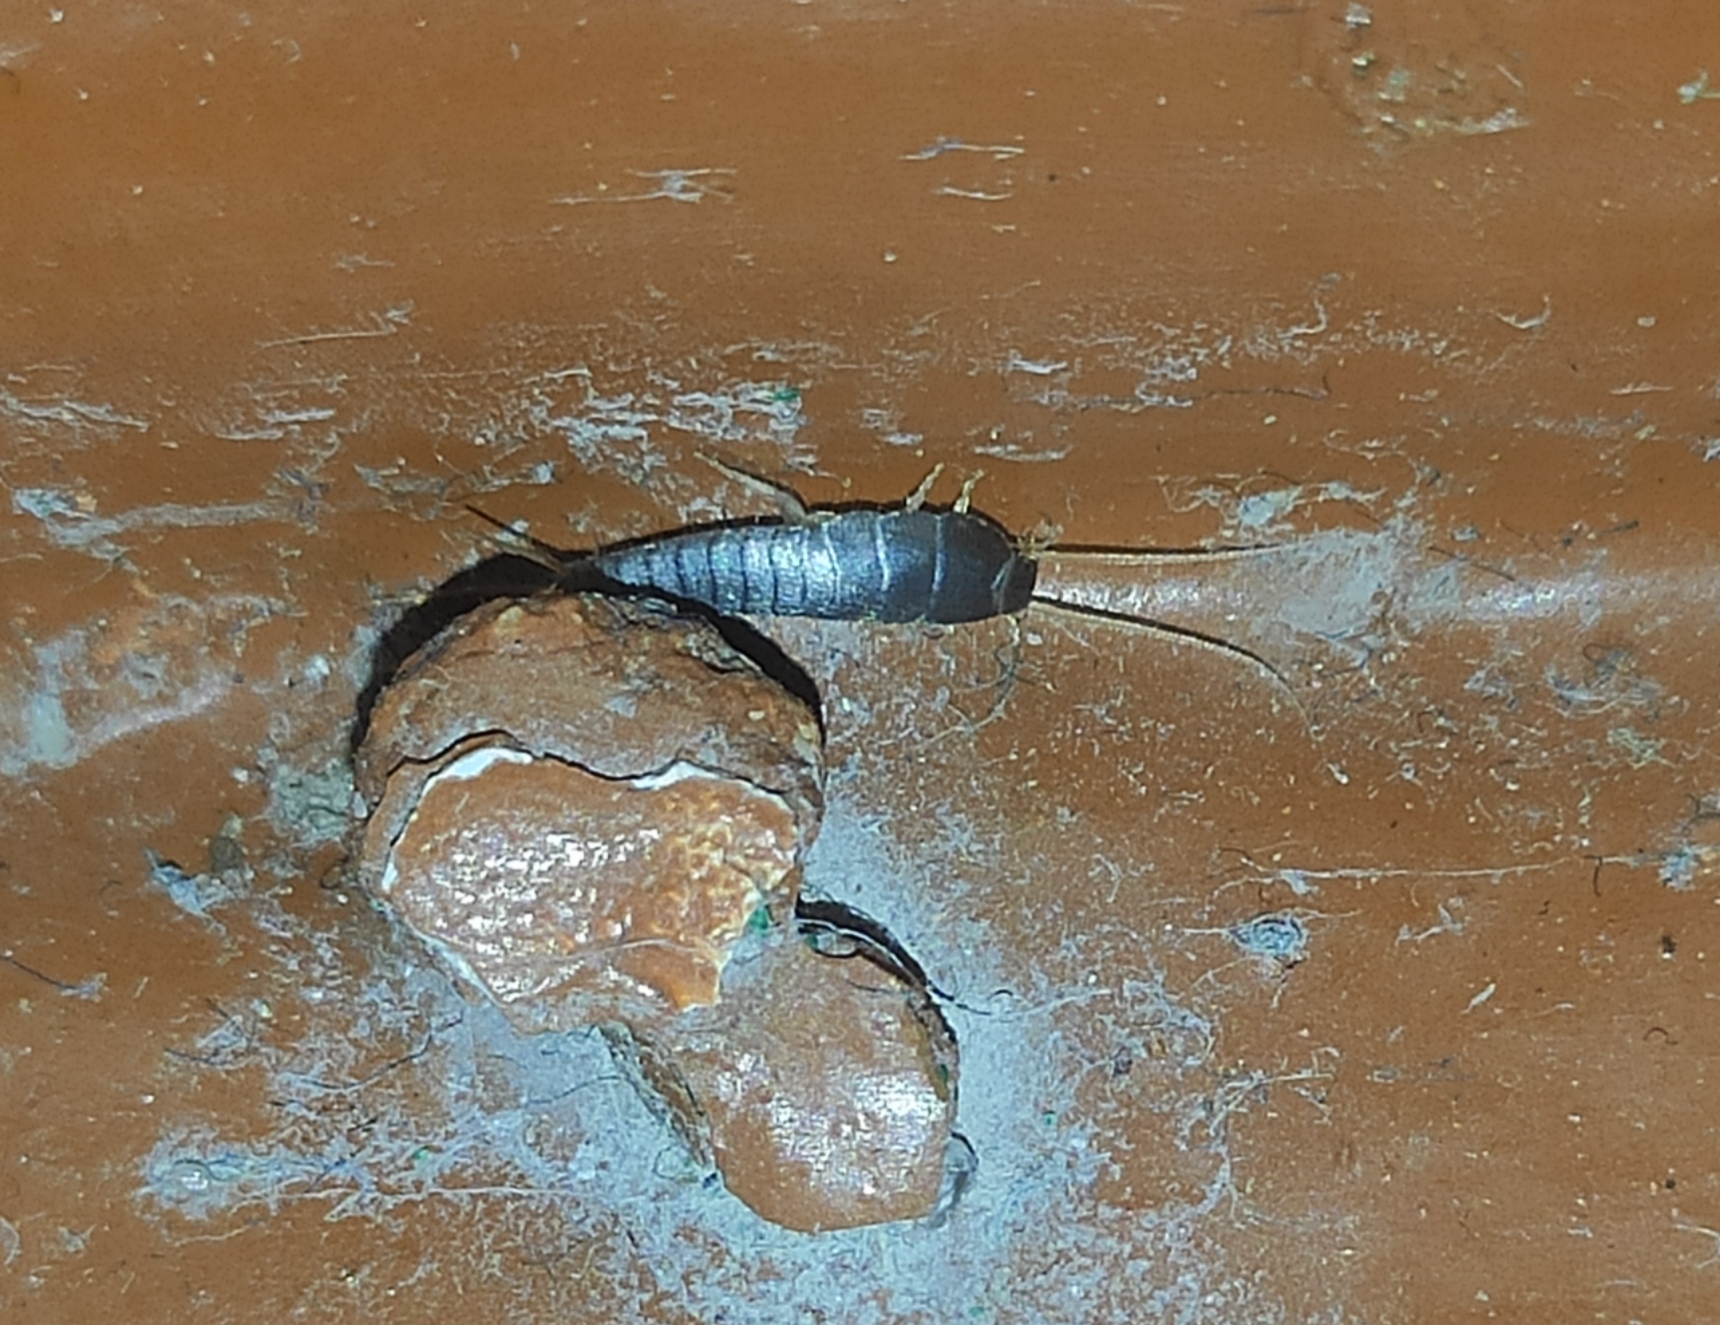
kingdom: Animalia
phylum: Arthropoda
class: Insecta
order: Zygentoma
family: Lepismatidae
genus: Lepisma
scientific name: Lepisma saccharinum
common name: Silverfish
